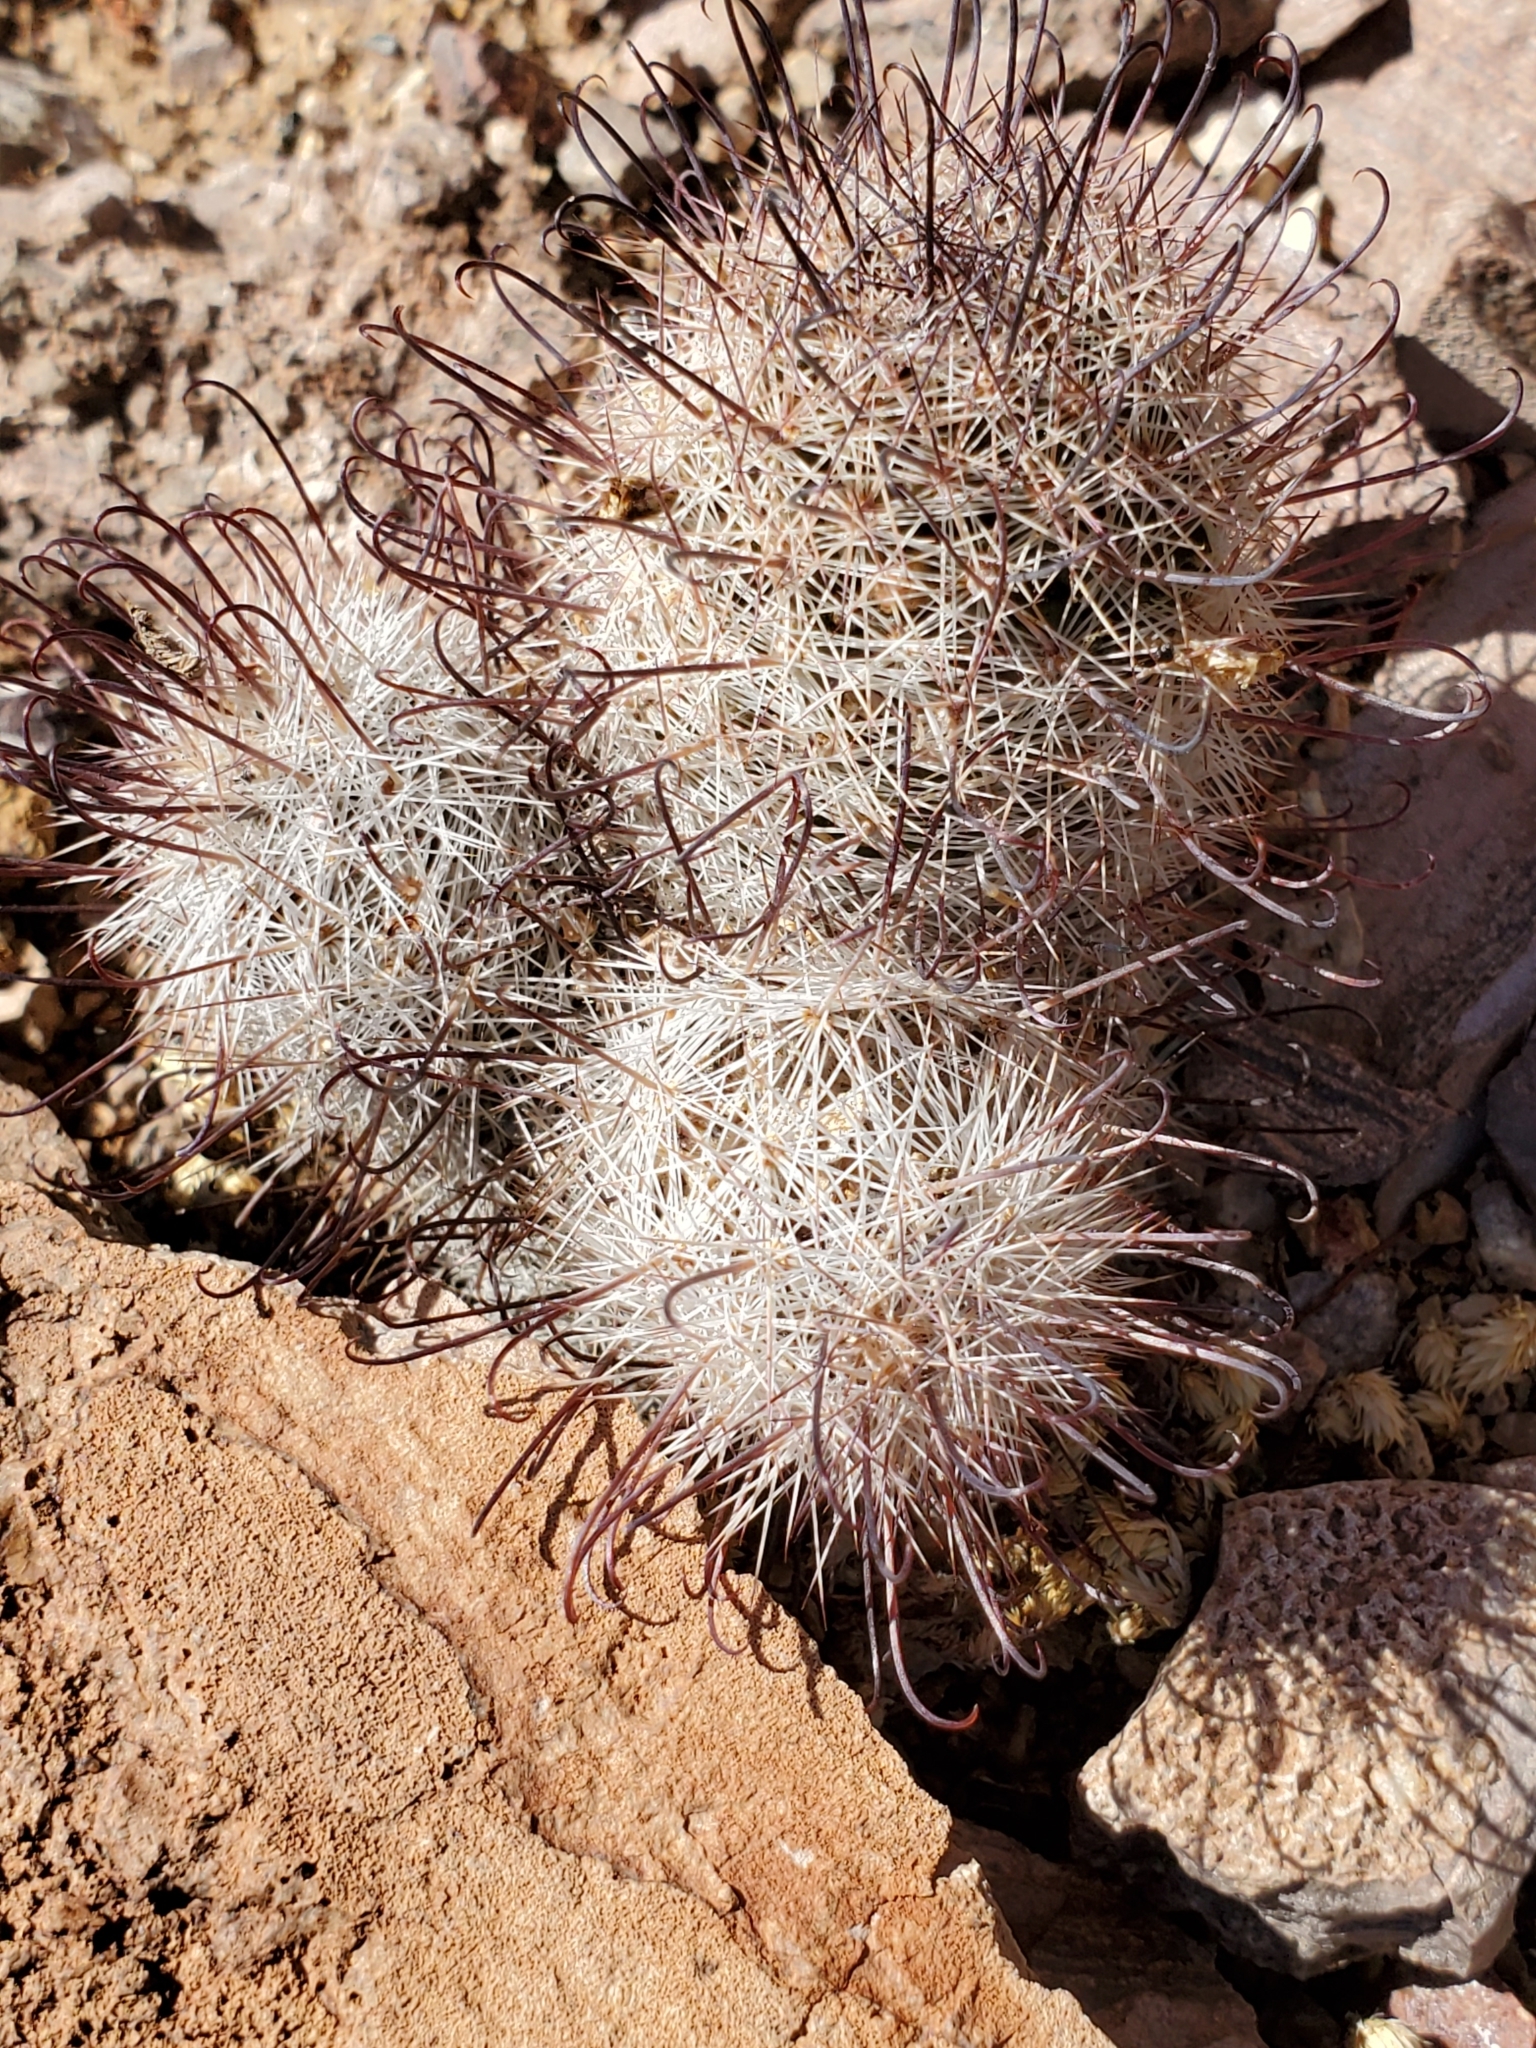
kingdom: Plantae
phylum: Tracheophyta
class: Magnoliopsida
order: Caryophyllales
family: Cactaceae
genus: Cochemiea
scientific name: Cochemiea grahamii
